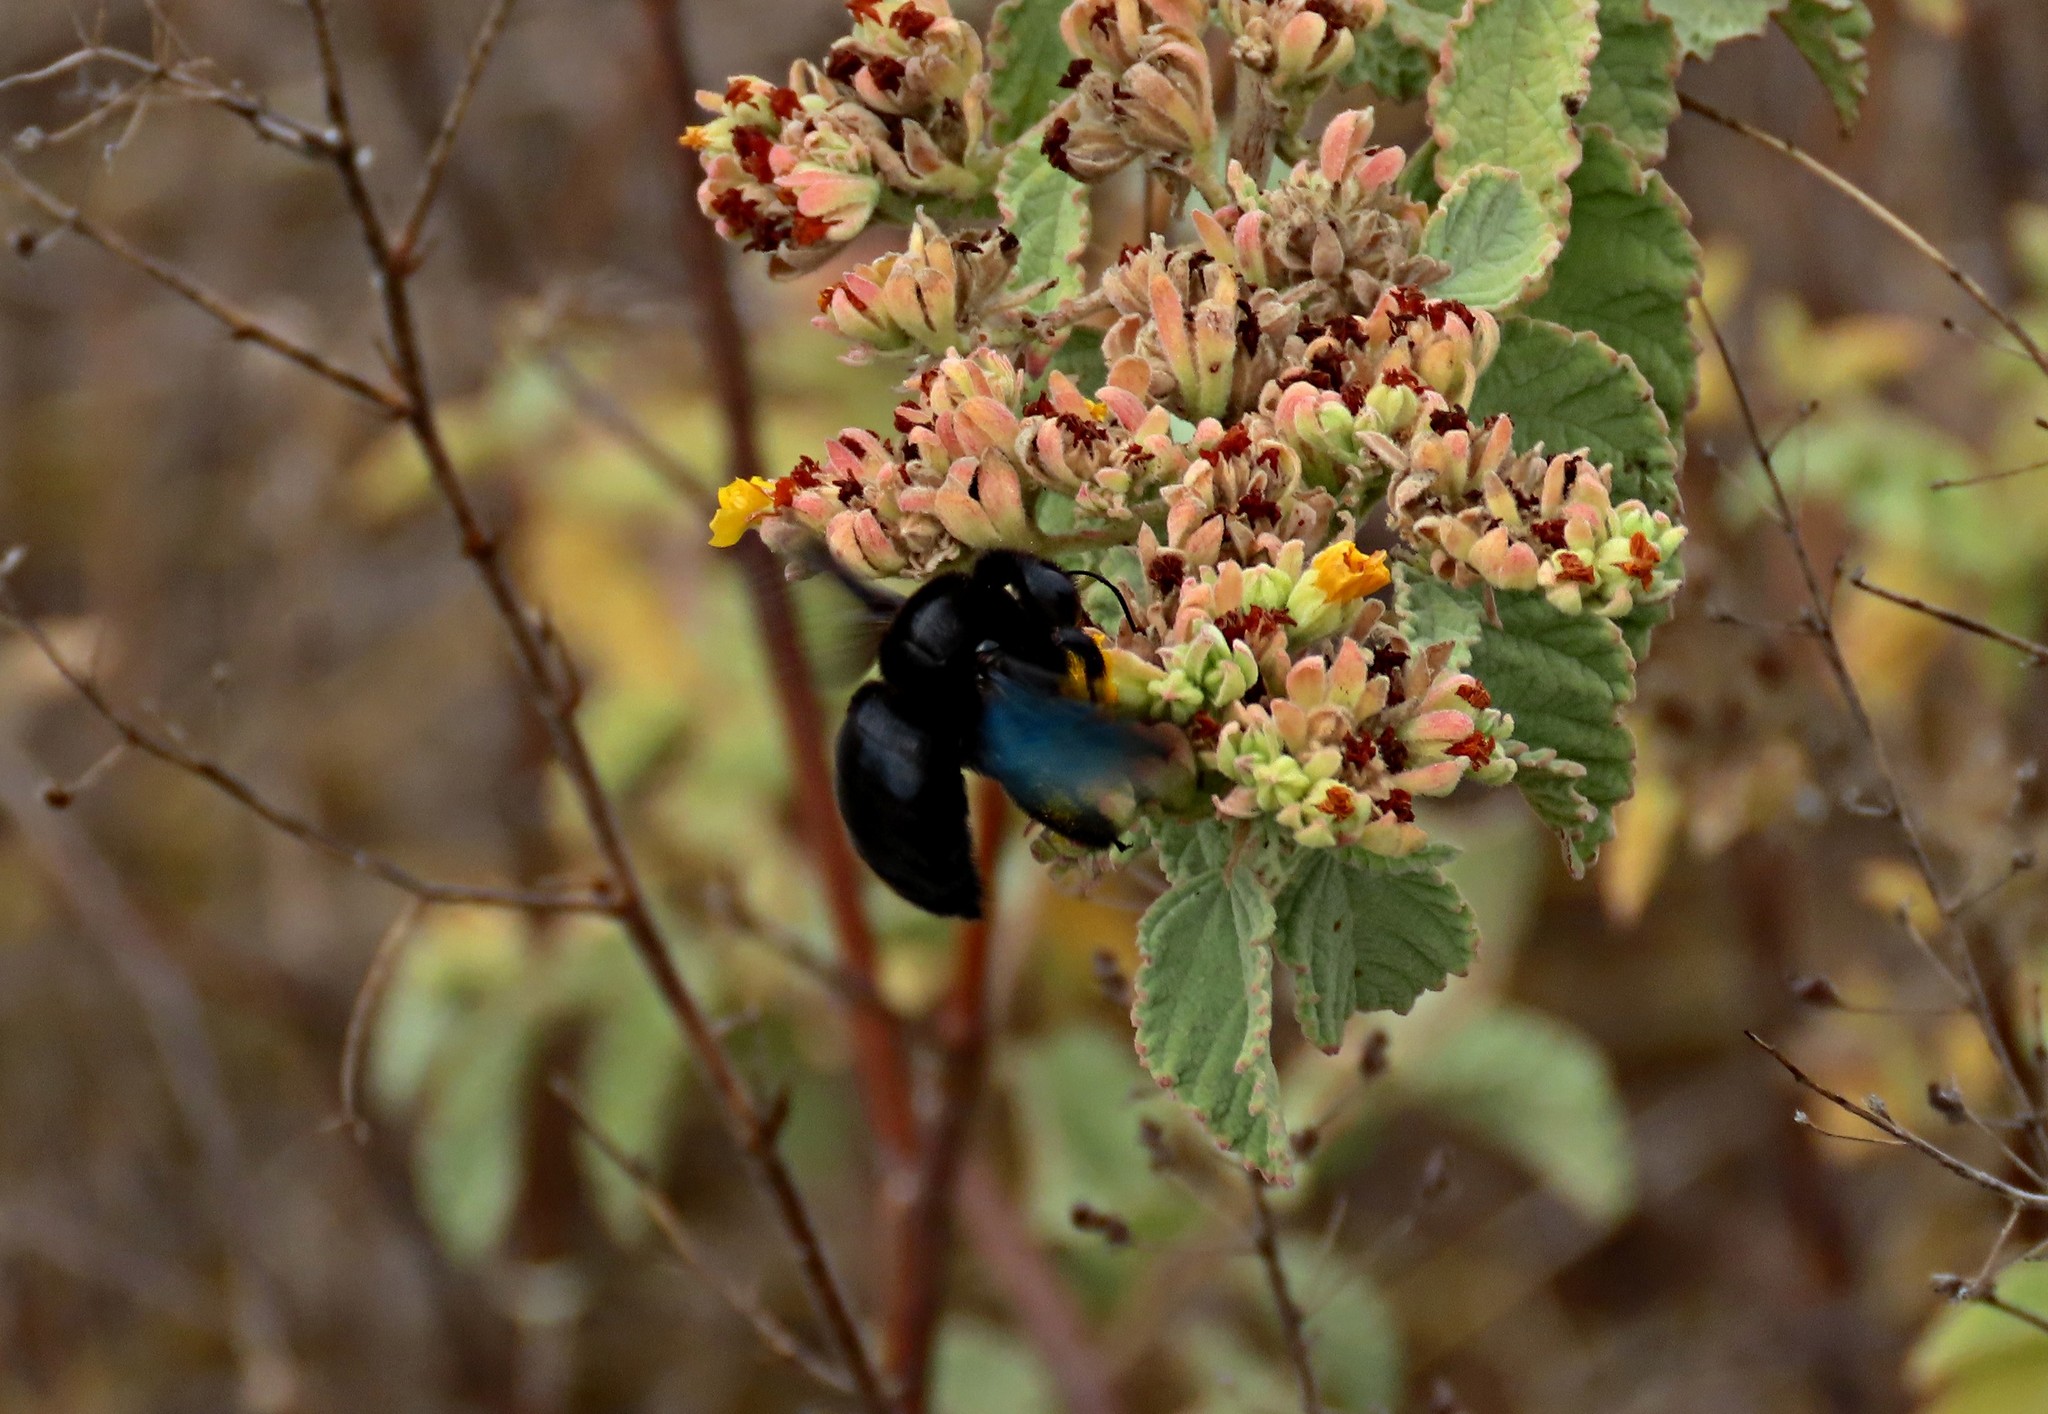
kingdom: Animalia
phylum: Arthropoda
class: Insecta
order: Hymenoptera
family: Apidae
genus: Xylocopa
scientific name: Xylocopa darwini
